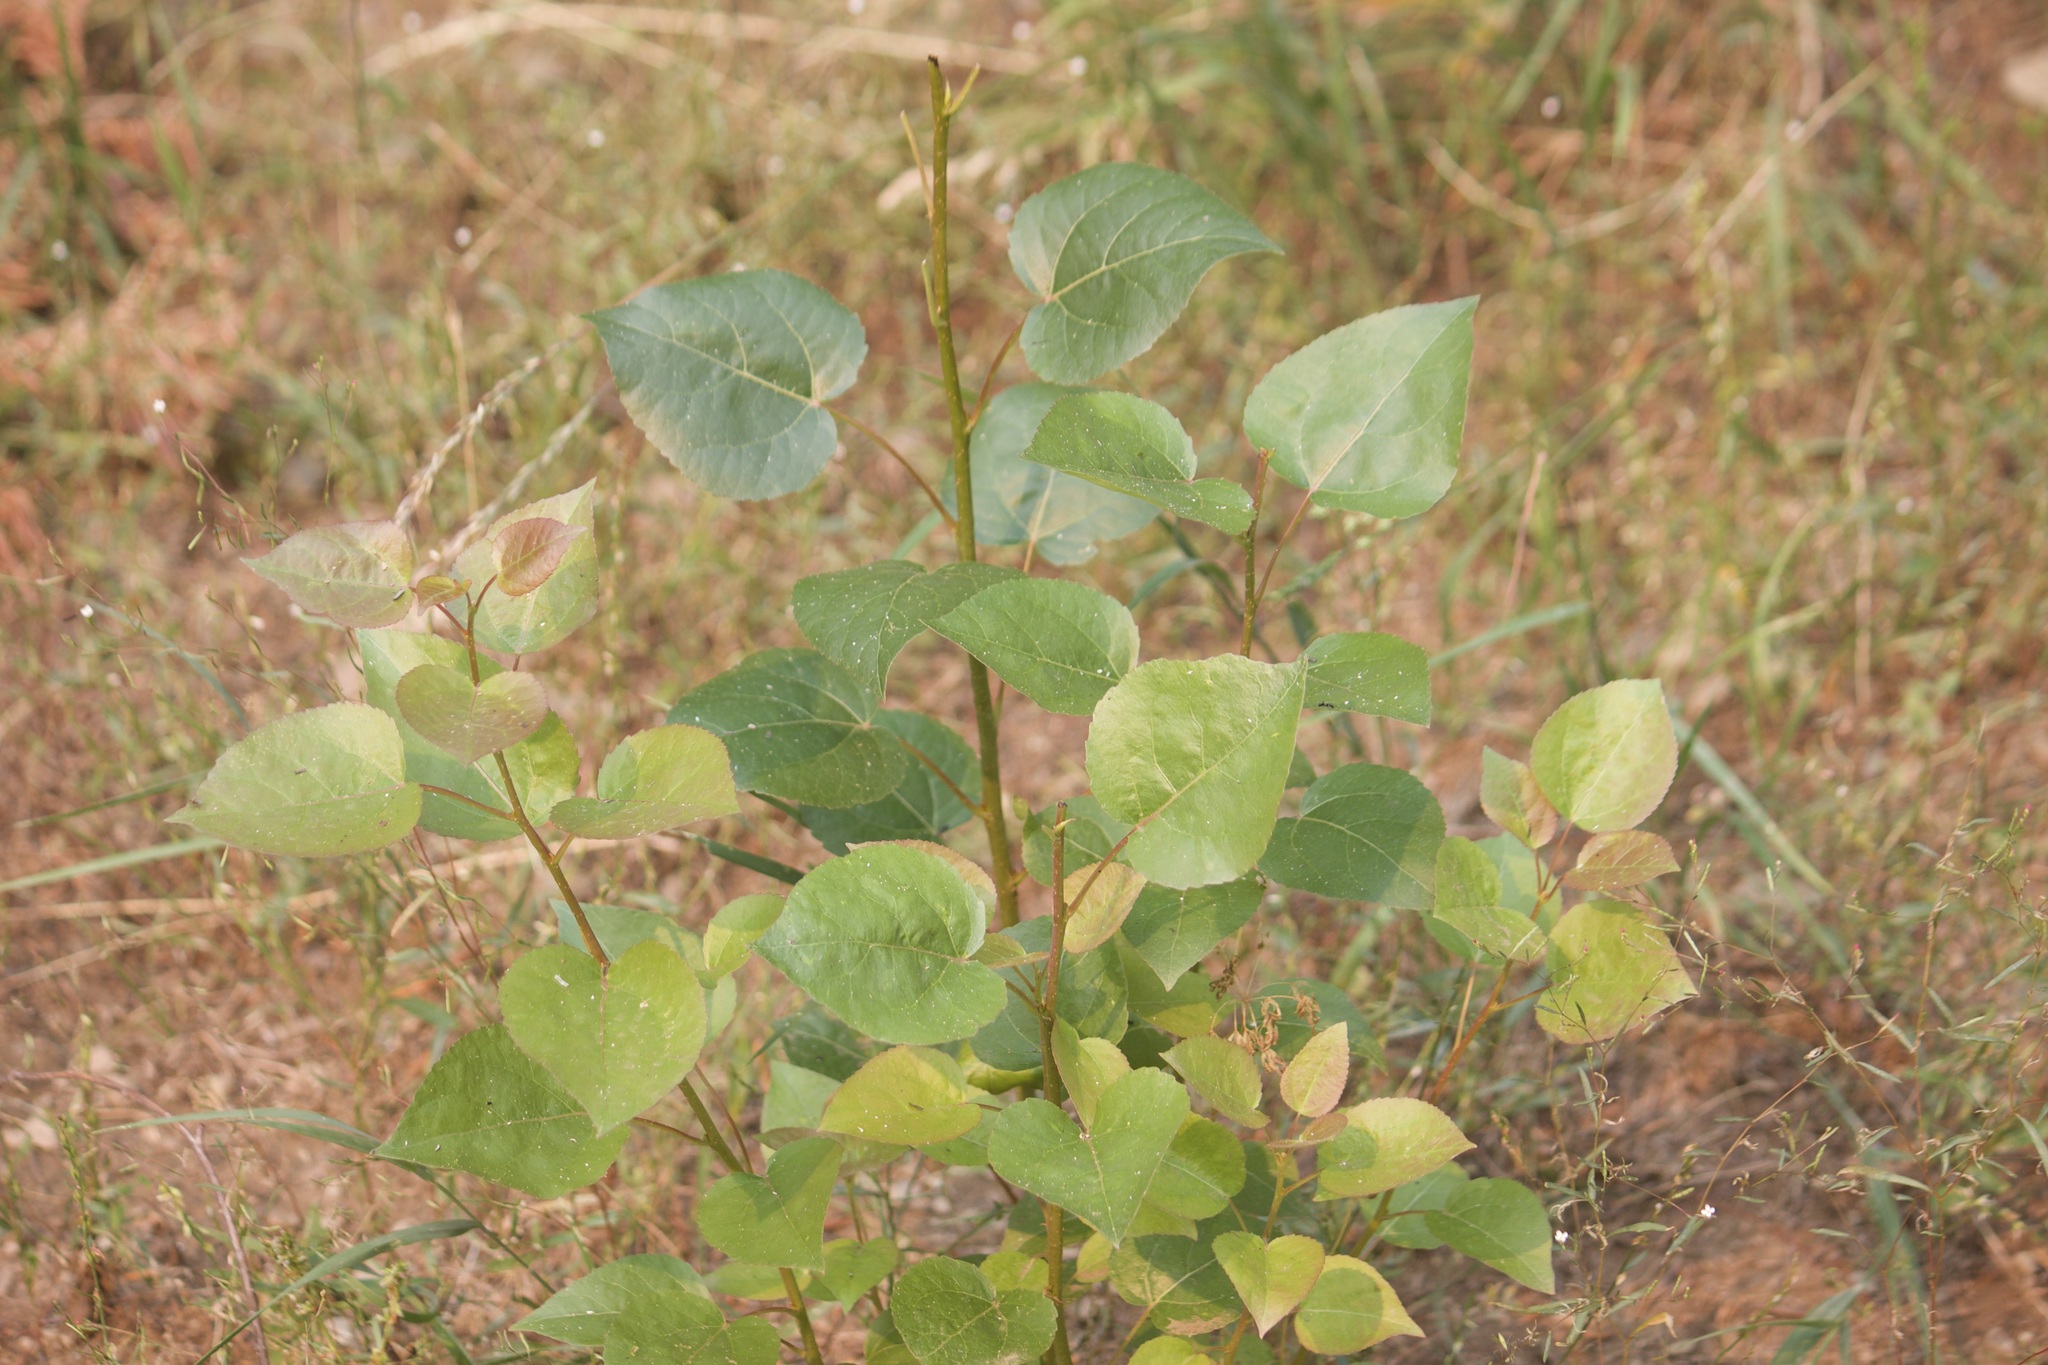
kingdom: Plantae
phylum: Tracheophyta
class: Magnoliopsida
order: Malpighiales
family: Salicaceae
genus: Populus
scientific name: Populus tremuloides
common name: Quaking aspen
